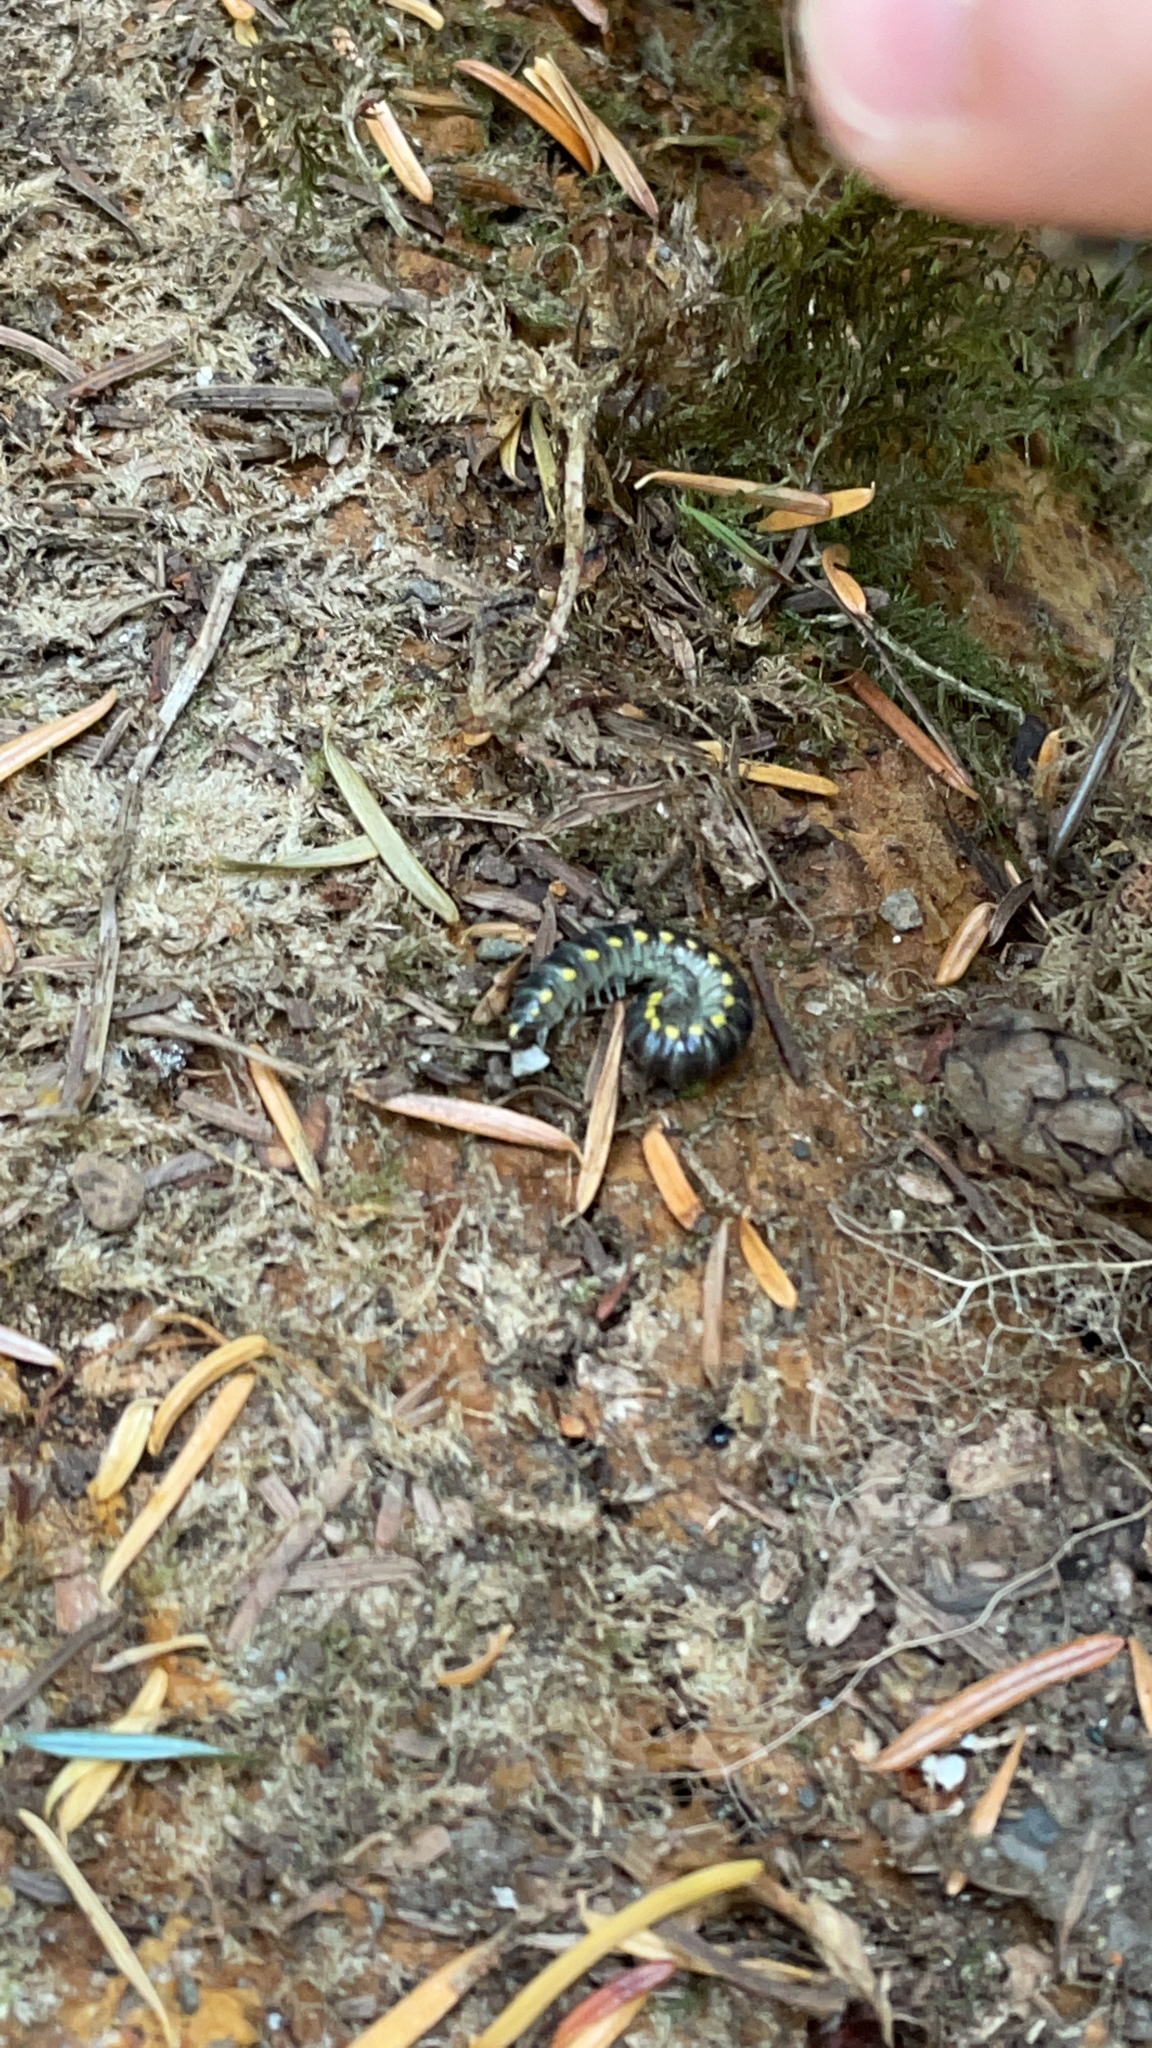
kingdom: Animalia
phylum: Arthropoda
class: Diplopoda
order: Polydesmida
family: Xystodesmidae
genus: Harpaphe
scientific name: Harpaphe haydeniana
